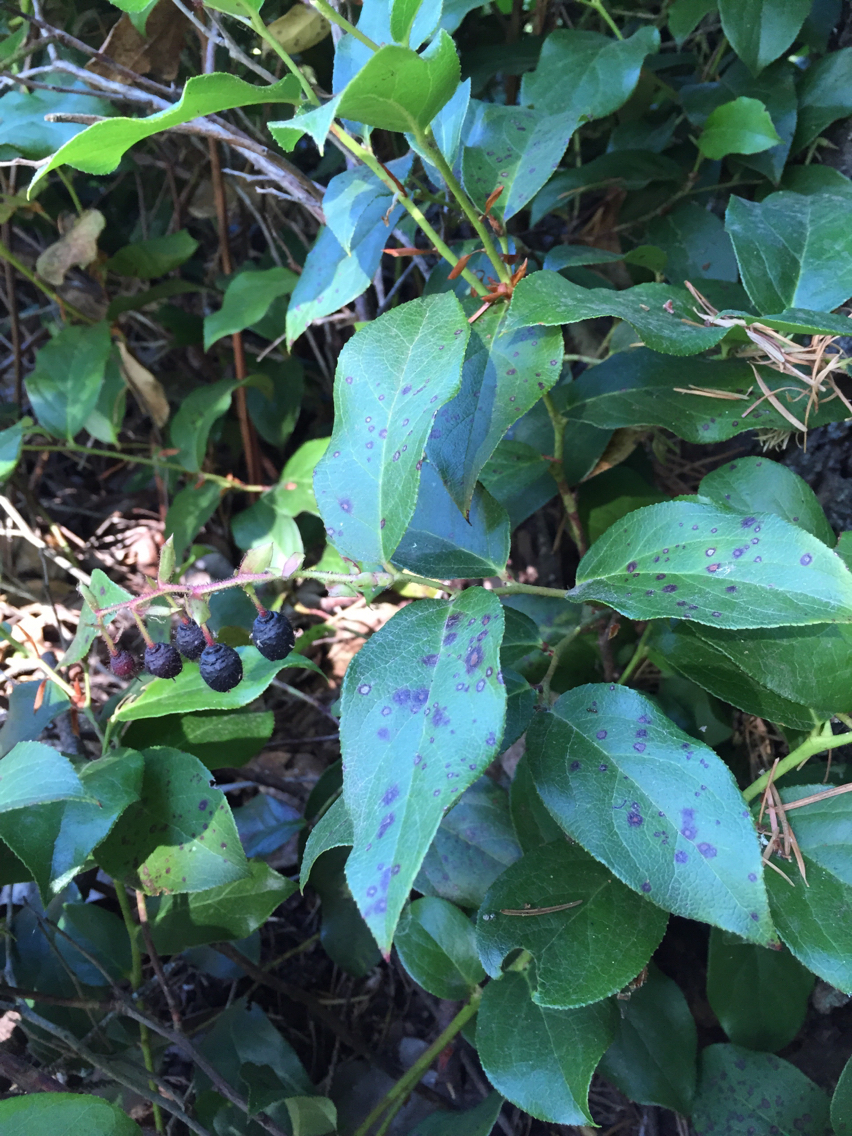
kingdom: Plantae
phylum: Tracheophyta
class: Magnoliopsida
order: Ericales
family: Ericaceae
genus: Gaultheria
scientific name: Gaultheria shallon
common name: Shallon
